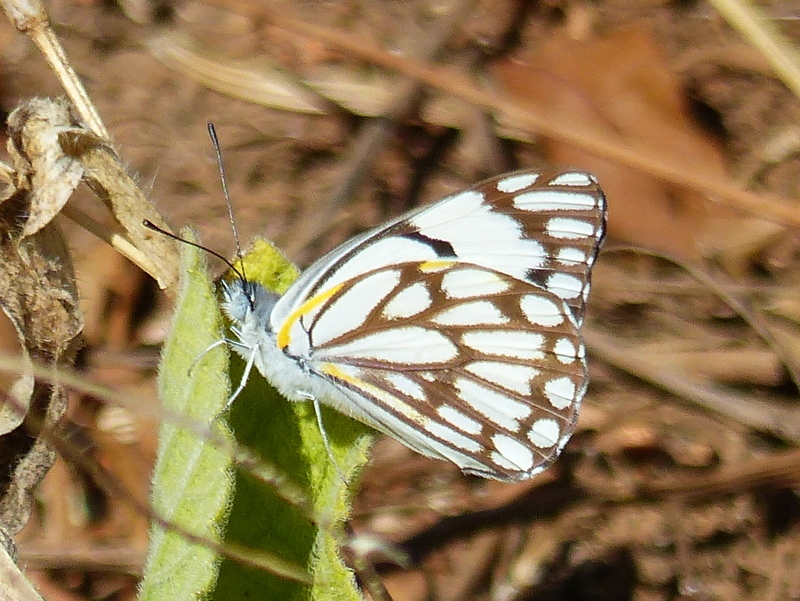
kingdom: Animalia
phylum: Arthropoda
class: Insecta
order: Lepidoptera
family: Pieridae
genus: Belenois
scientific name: Belenois aurota
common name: Brown-veined white
